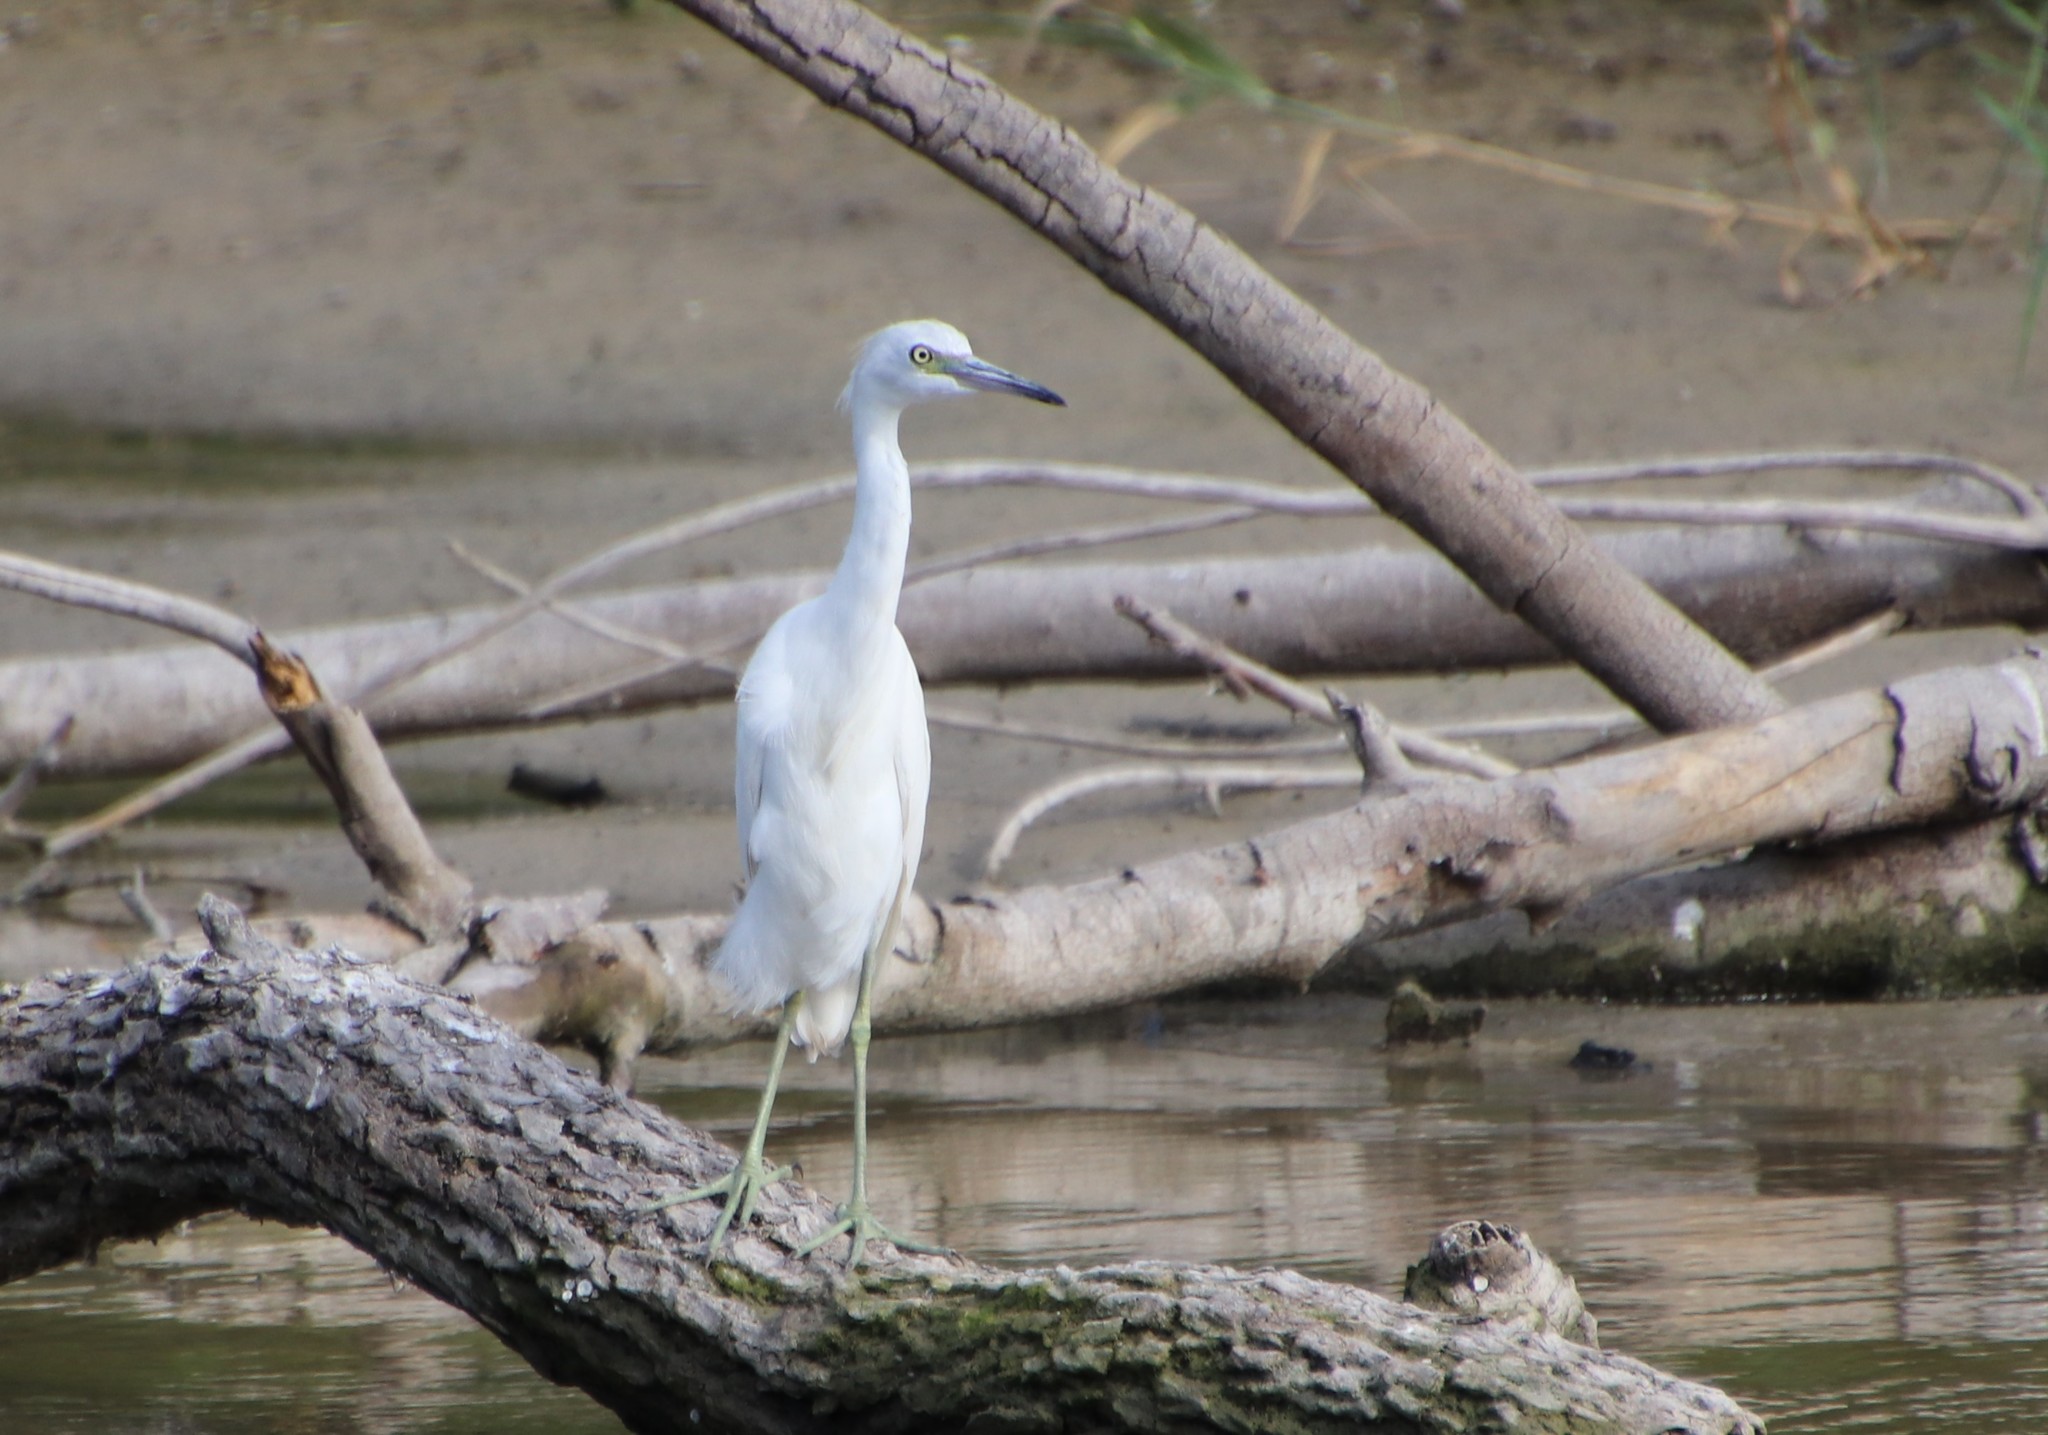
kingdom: Animalia
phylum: Chordata
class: Aves
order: Pelecaniformes
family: Ardeidae
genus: Egretta
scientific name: Egretta caerulea
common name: Little blue heron
